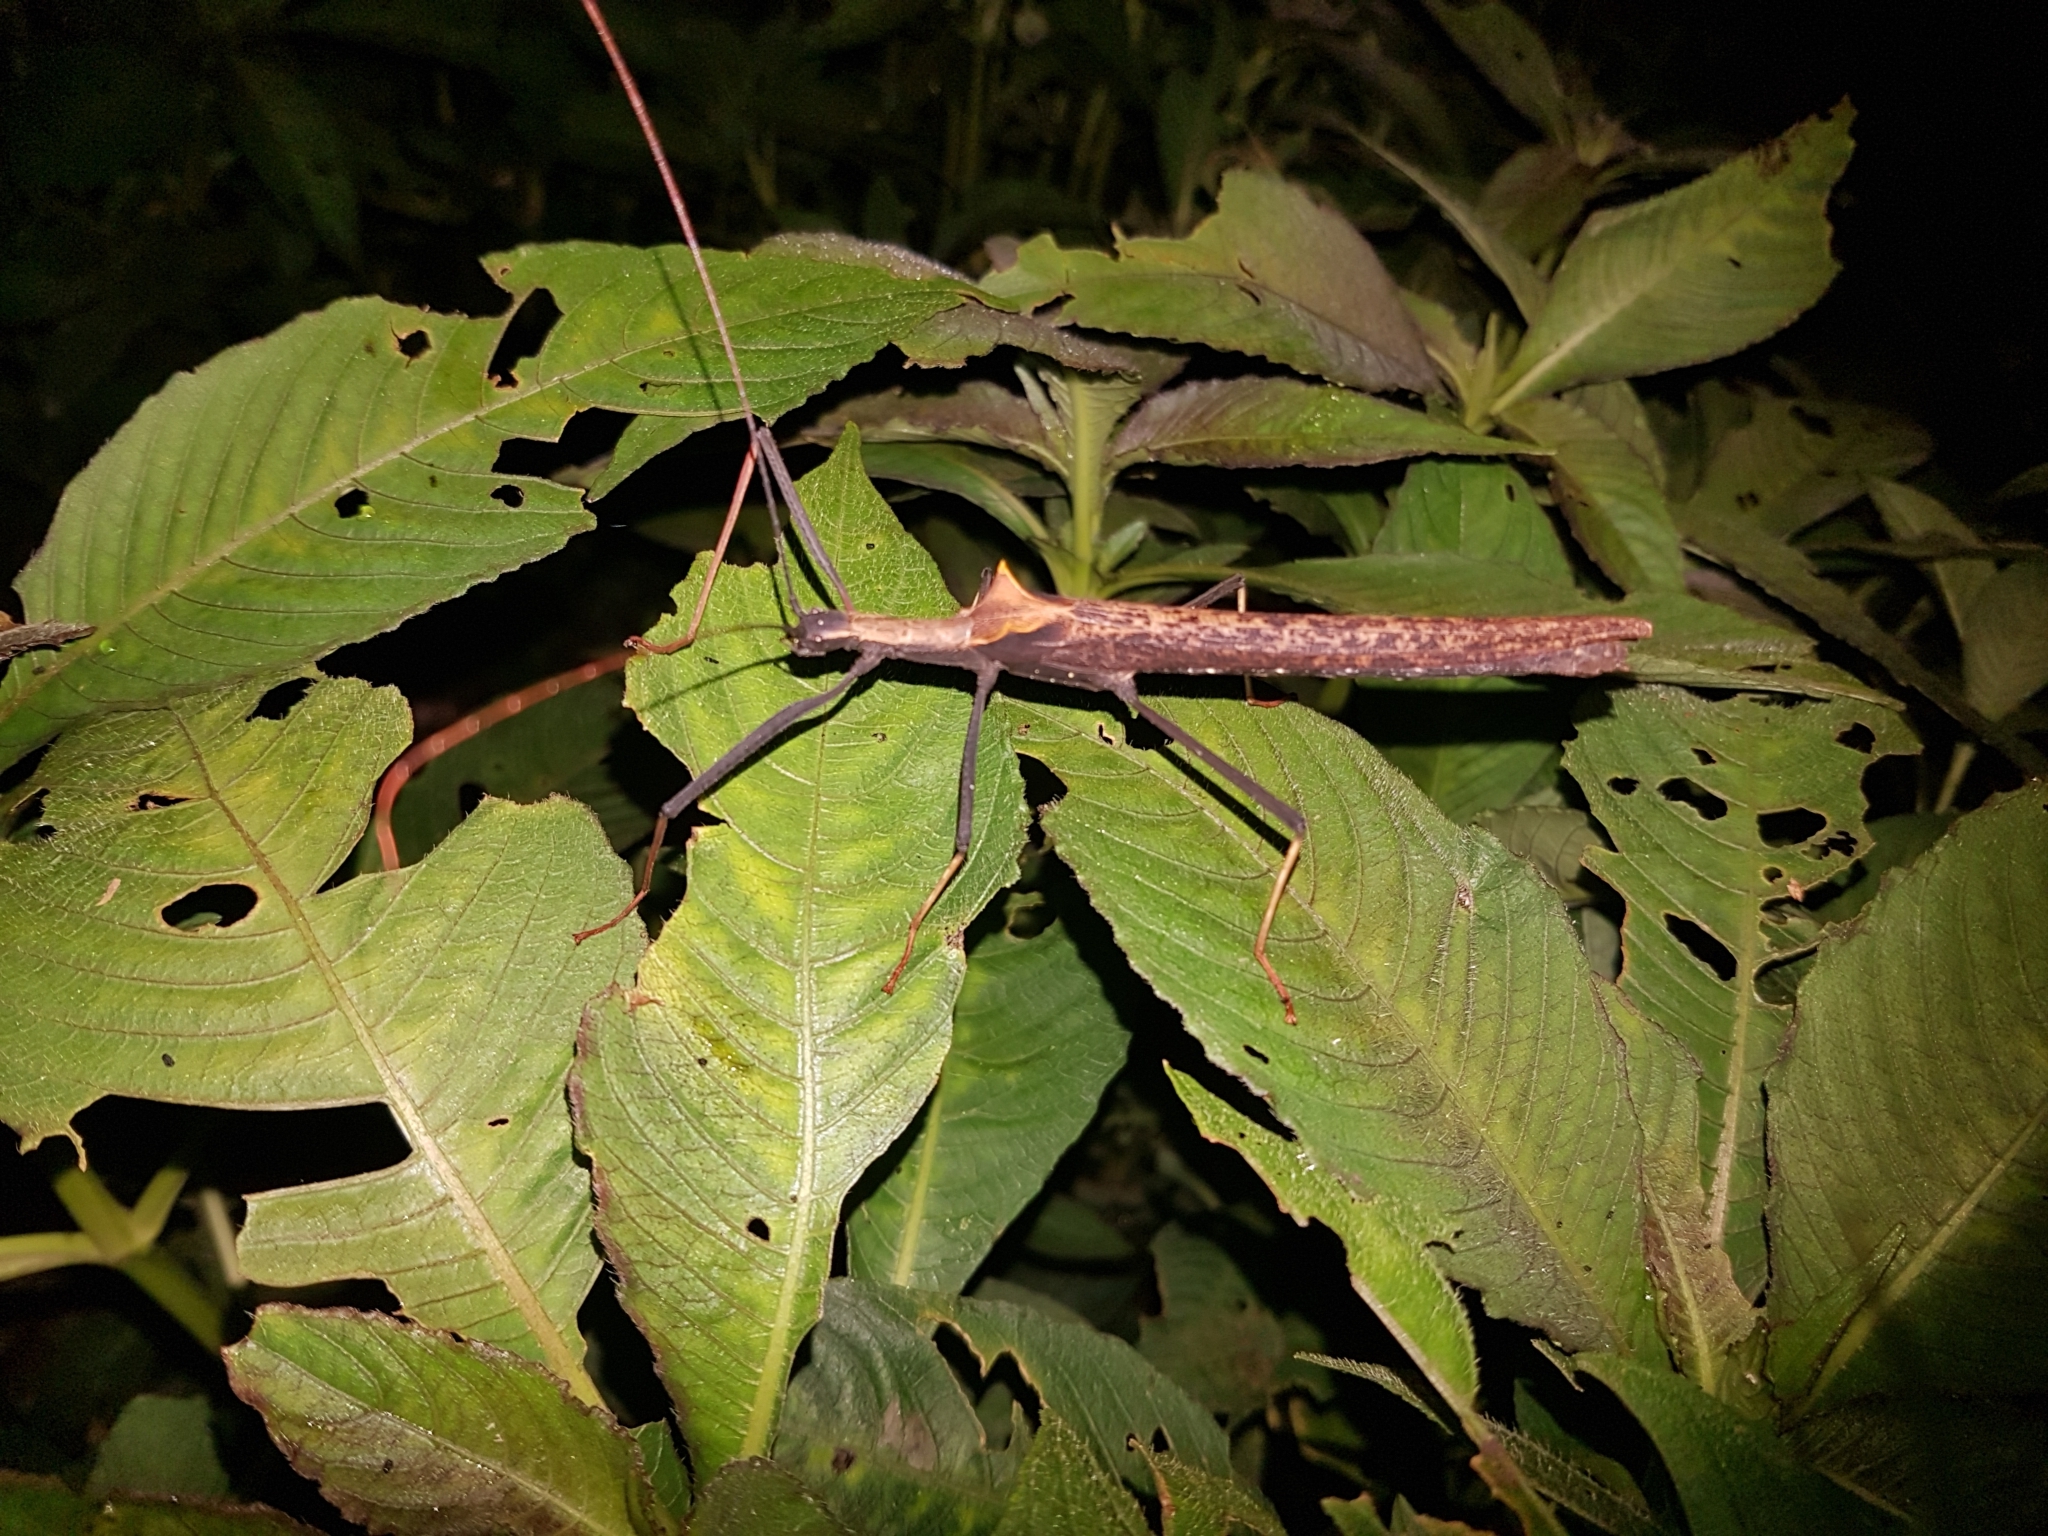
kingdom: Animalia
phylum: Arthropoda
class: Insecta
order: Phasmida
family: Pseudophasmatidae
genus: Pseudophasma
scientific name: Pseudophasma bispinosum
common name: Two-spined ecuador stick insect
